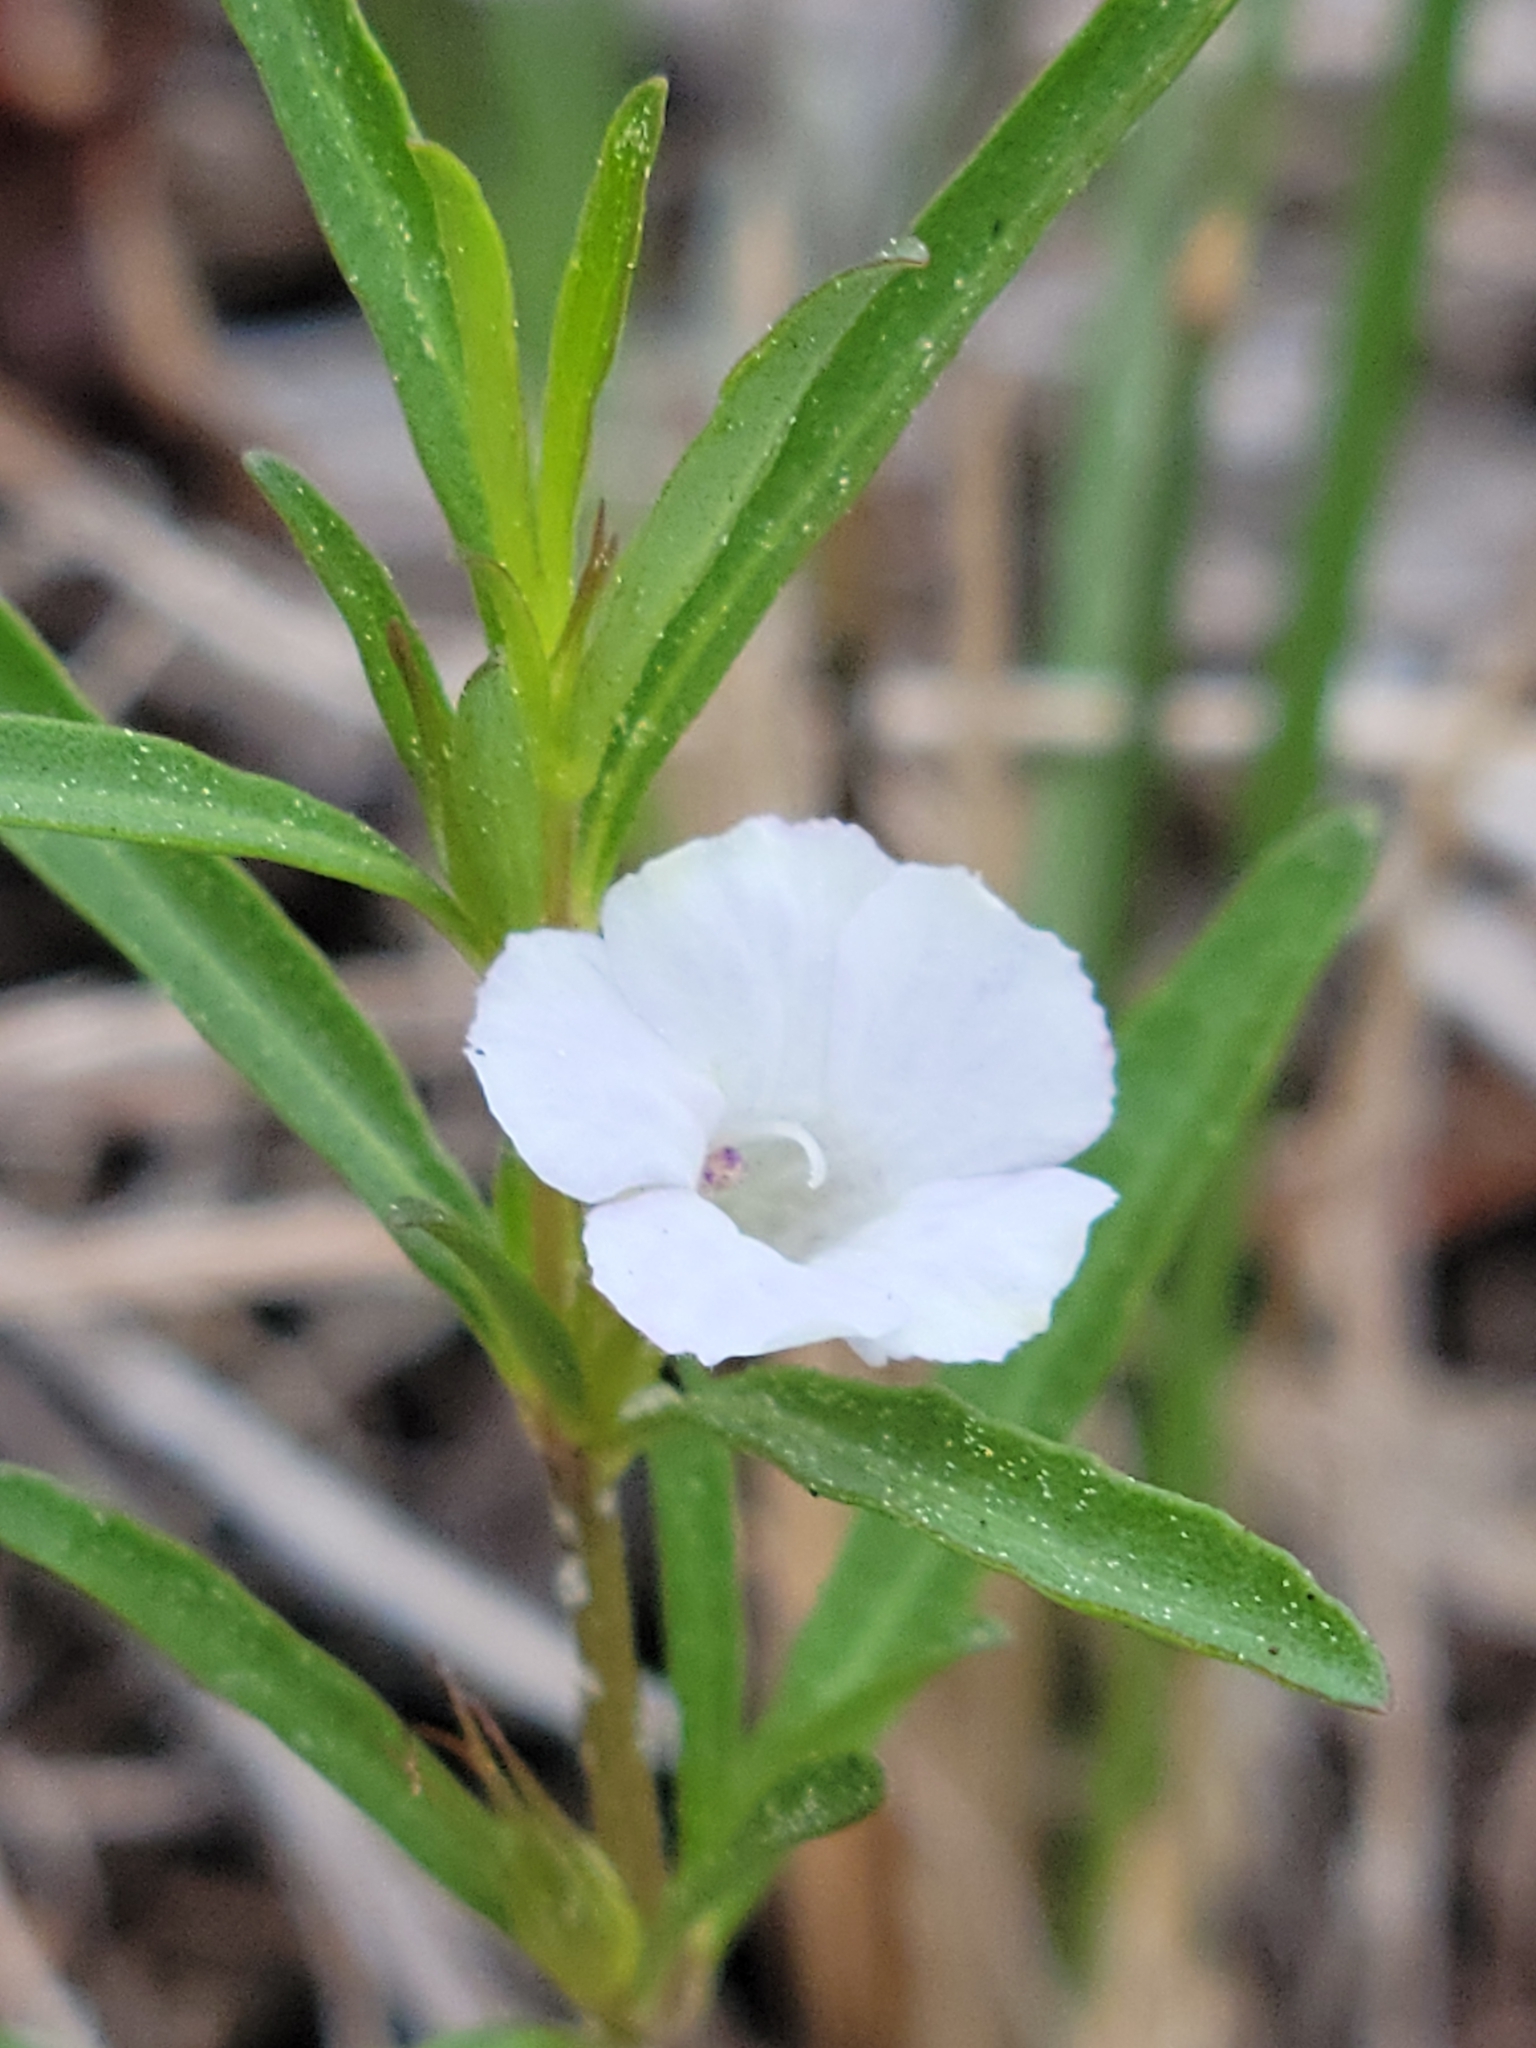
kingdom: Plantae
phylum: Tracheophyta
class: Magnoliopsida
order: Lamiales
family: Acanthaceae
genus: Dyschoriste
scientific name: Dyschoriste angusta
